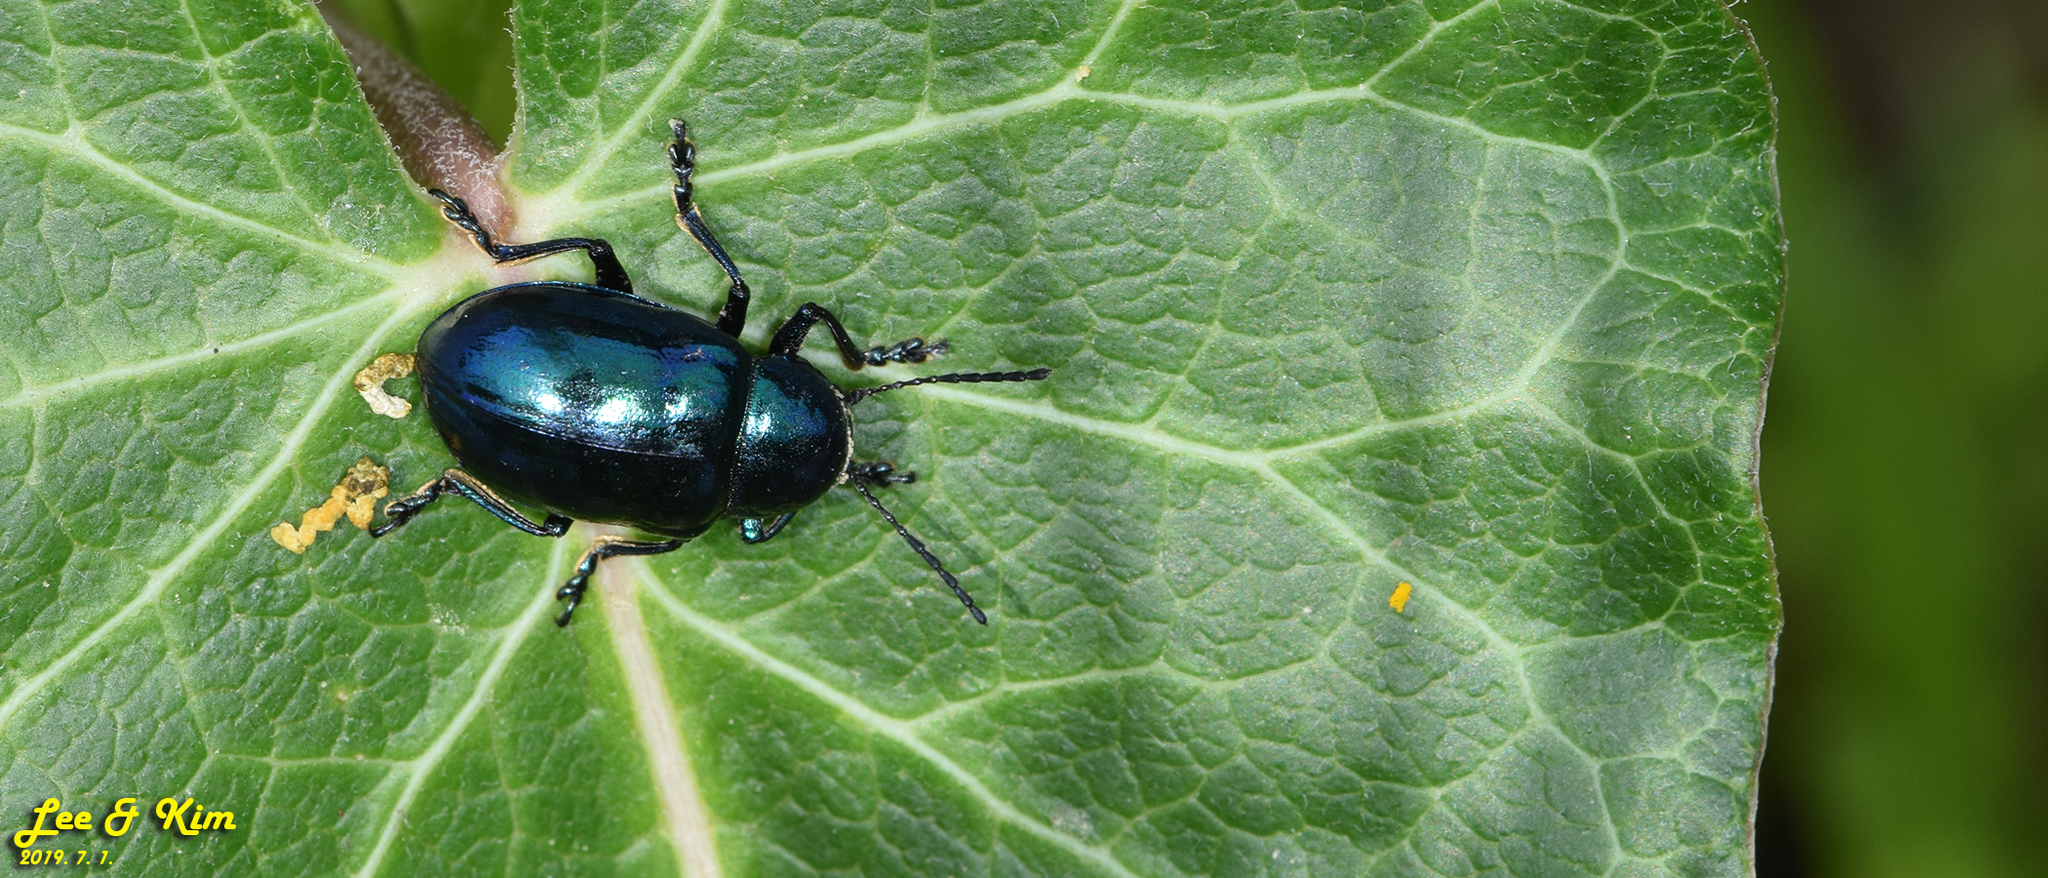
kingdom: Animalia
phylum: Arthropoda
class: Insecta
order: Coleoptera
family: Chrysomelidae
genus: Chrysochus
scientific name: Chrysochus chinensis
